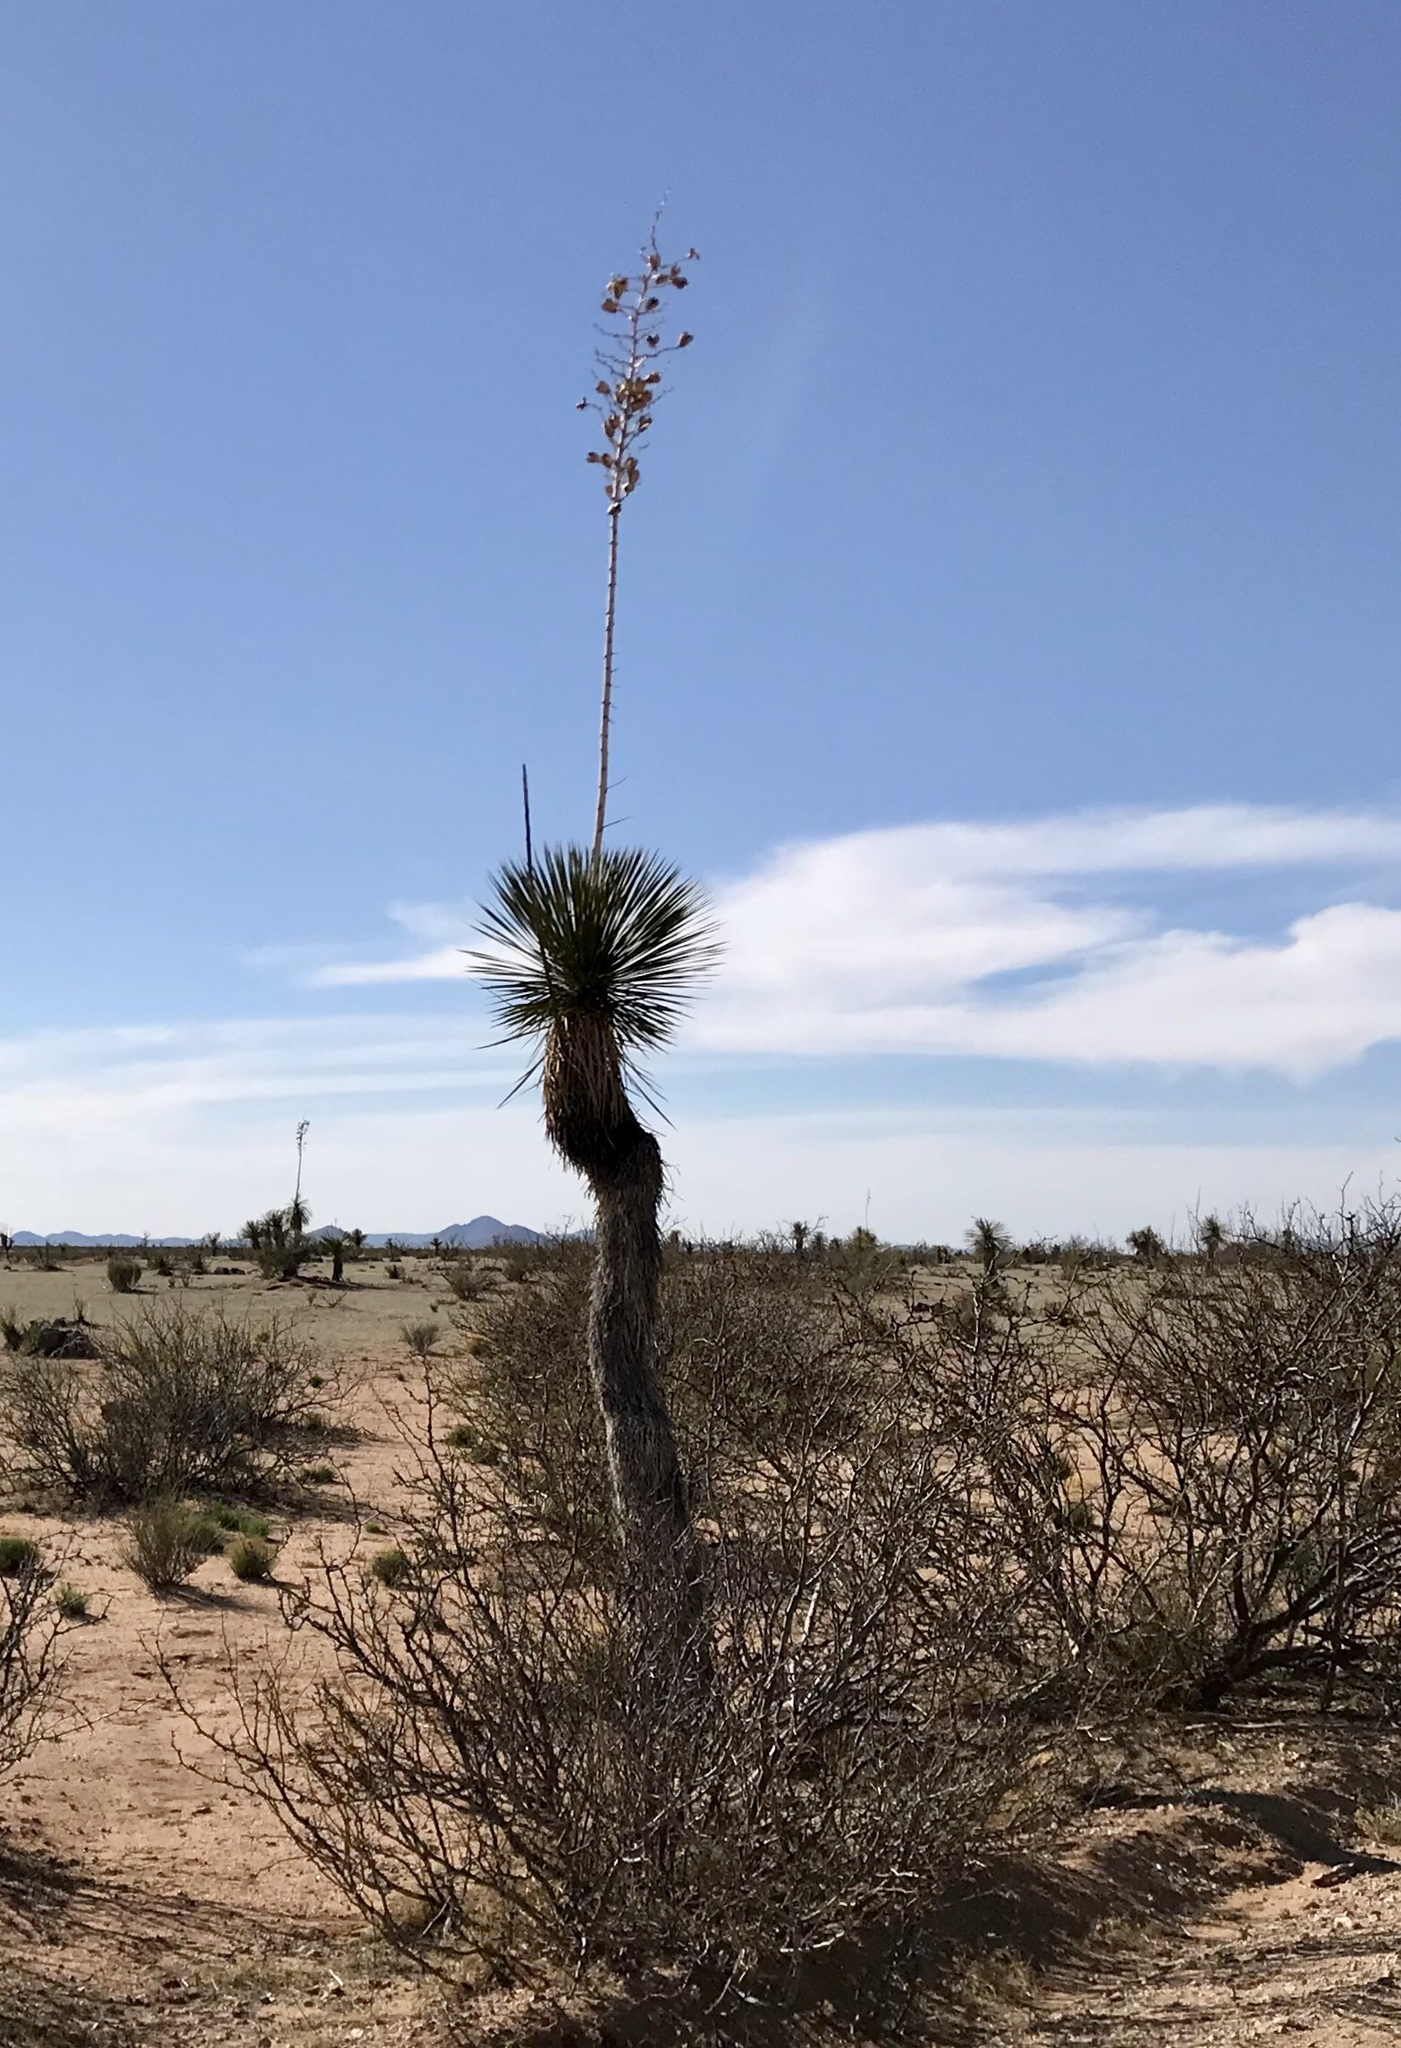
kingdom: Plantae
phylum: Tracheophyta
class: Liliopsida
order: Asparagales
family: Asparagaceae
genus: Yucca
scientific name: Yucca elata
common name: Palmella
